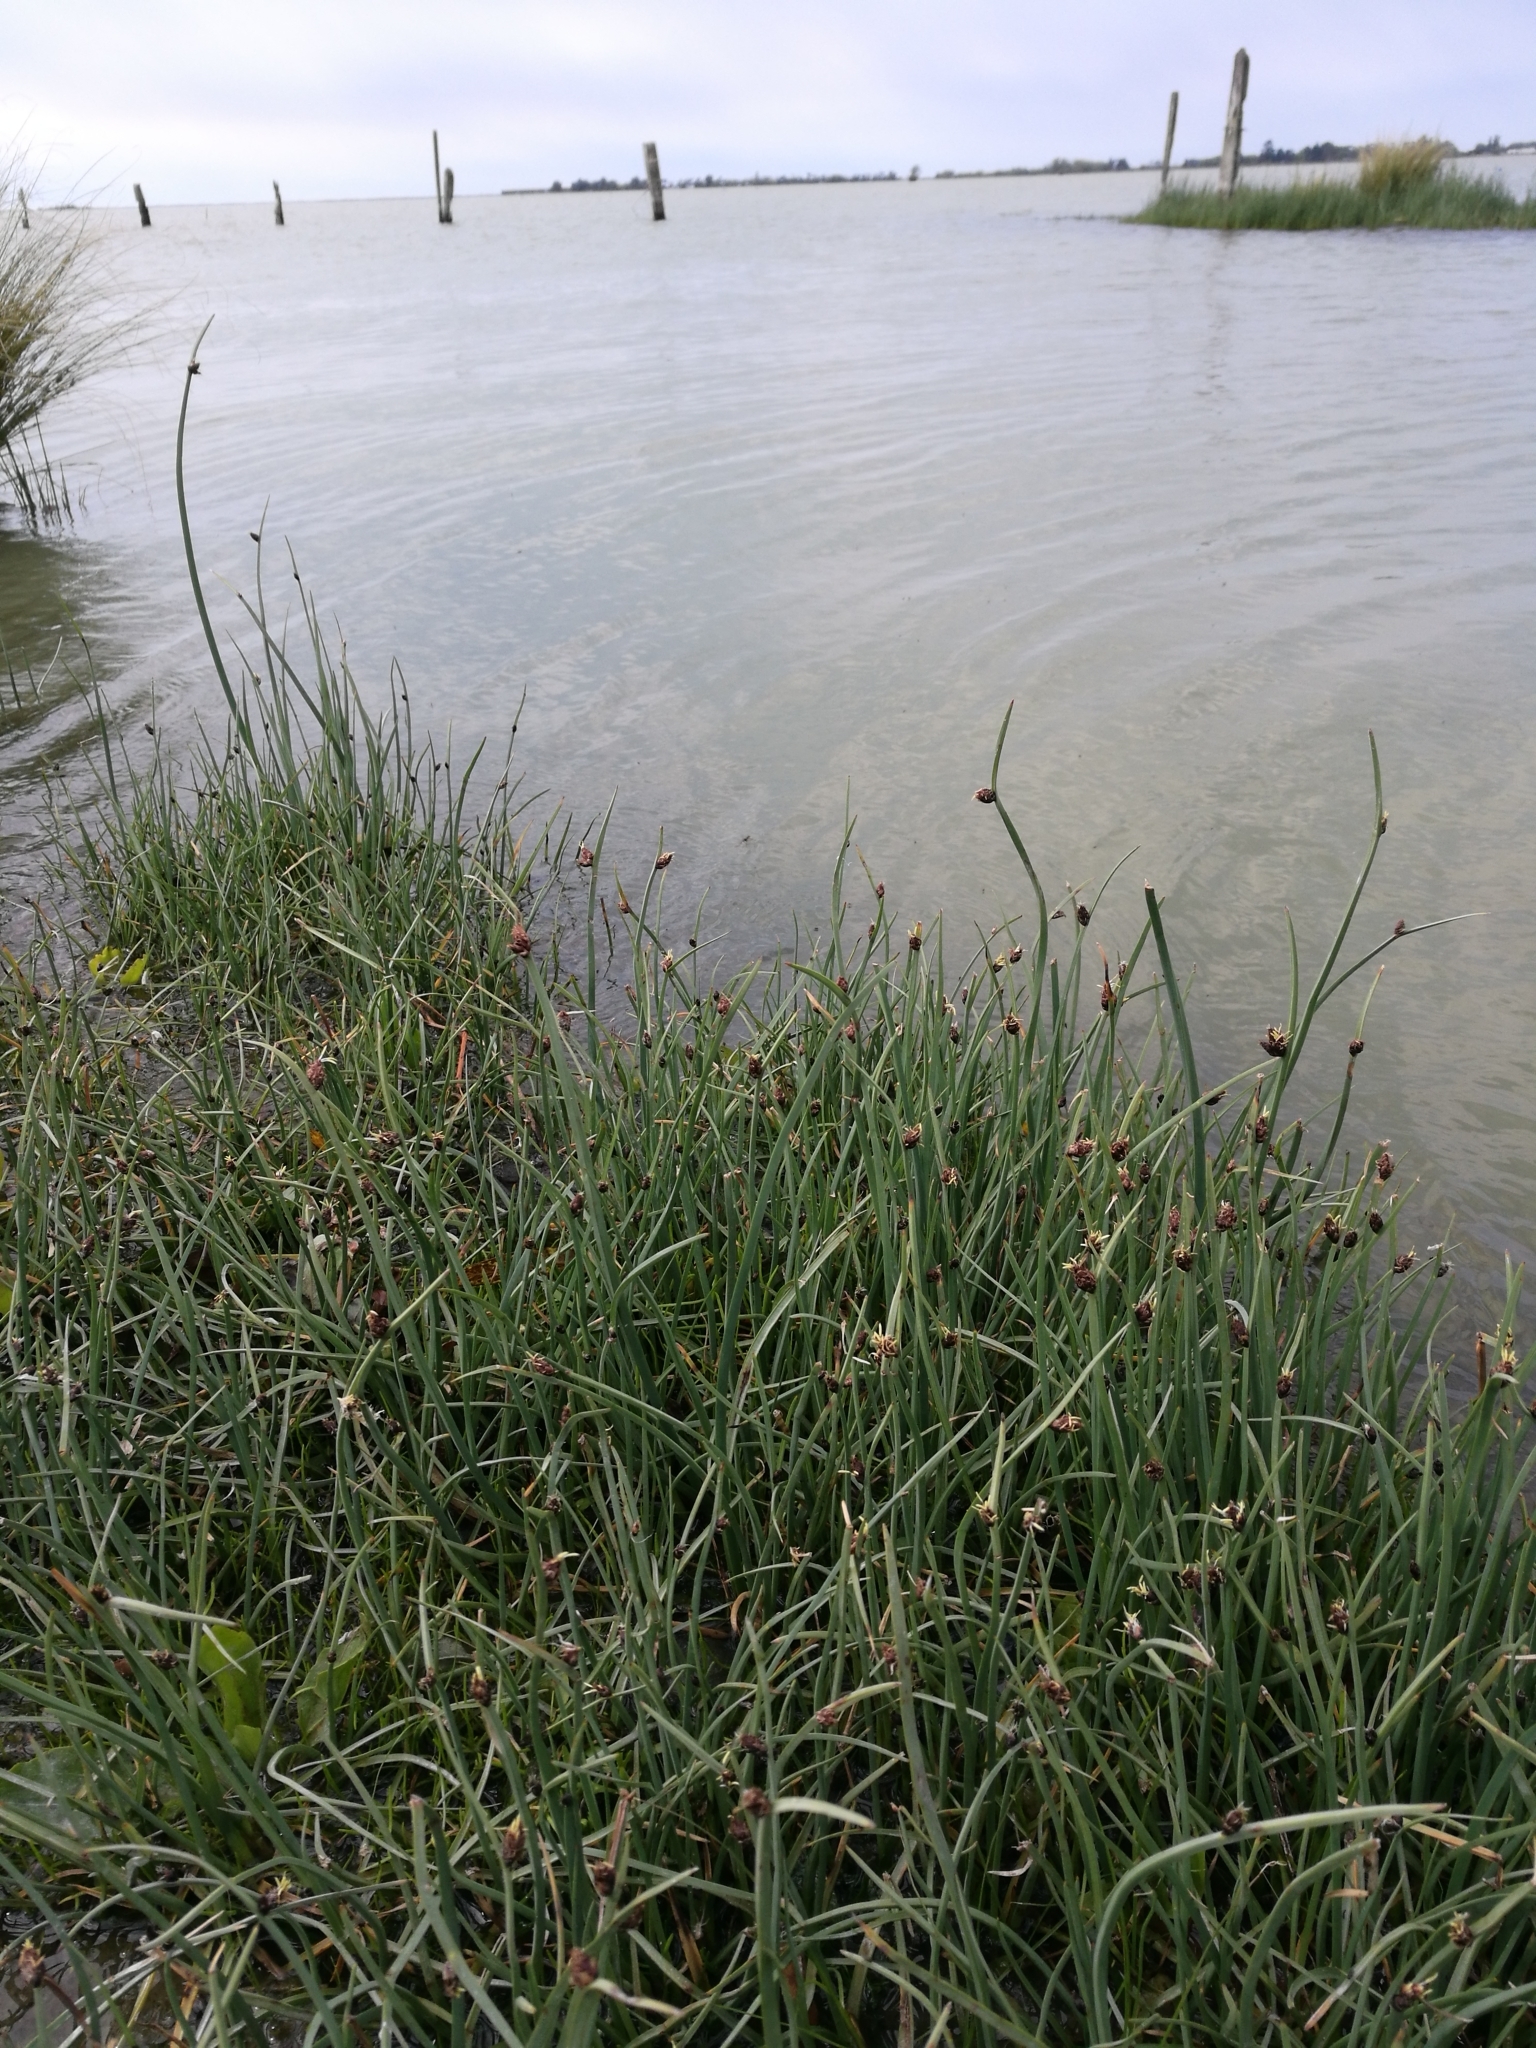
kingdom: Plantae
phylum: Tracheophyta
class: Liliopsida
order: Poales
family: Cyperaceae
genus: Schoenoplectus
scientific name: Schoenoplectus pungens
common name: Sharp club-rush
